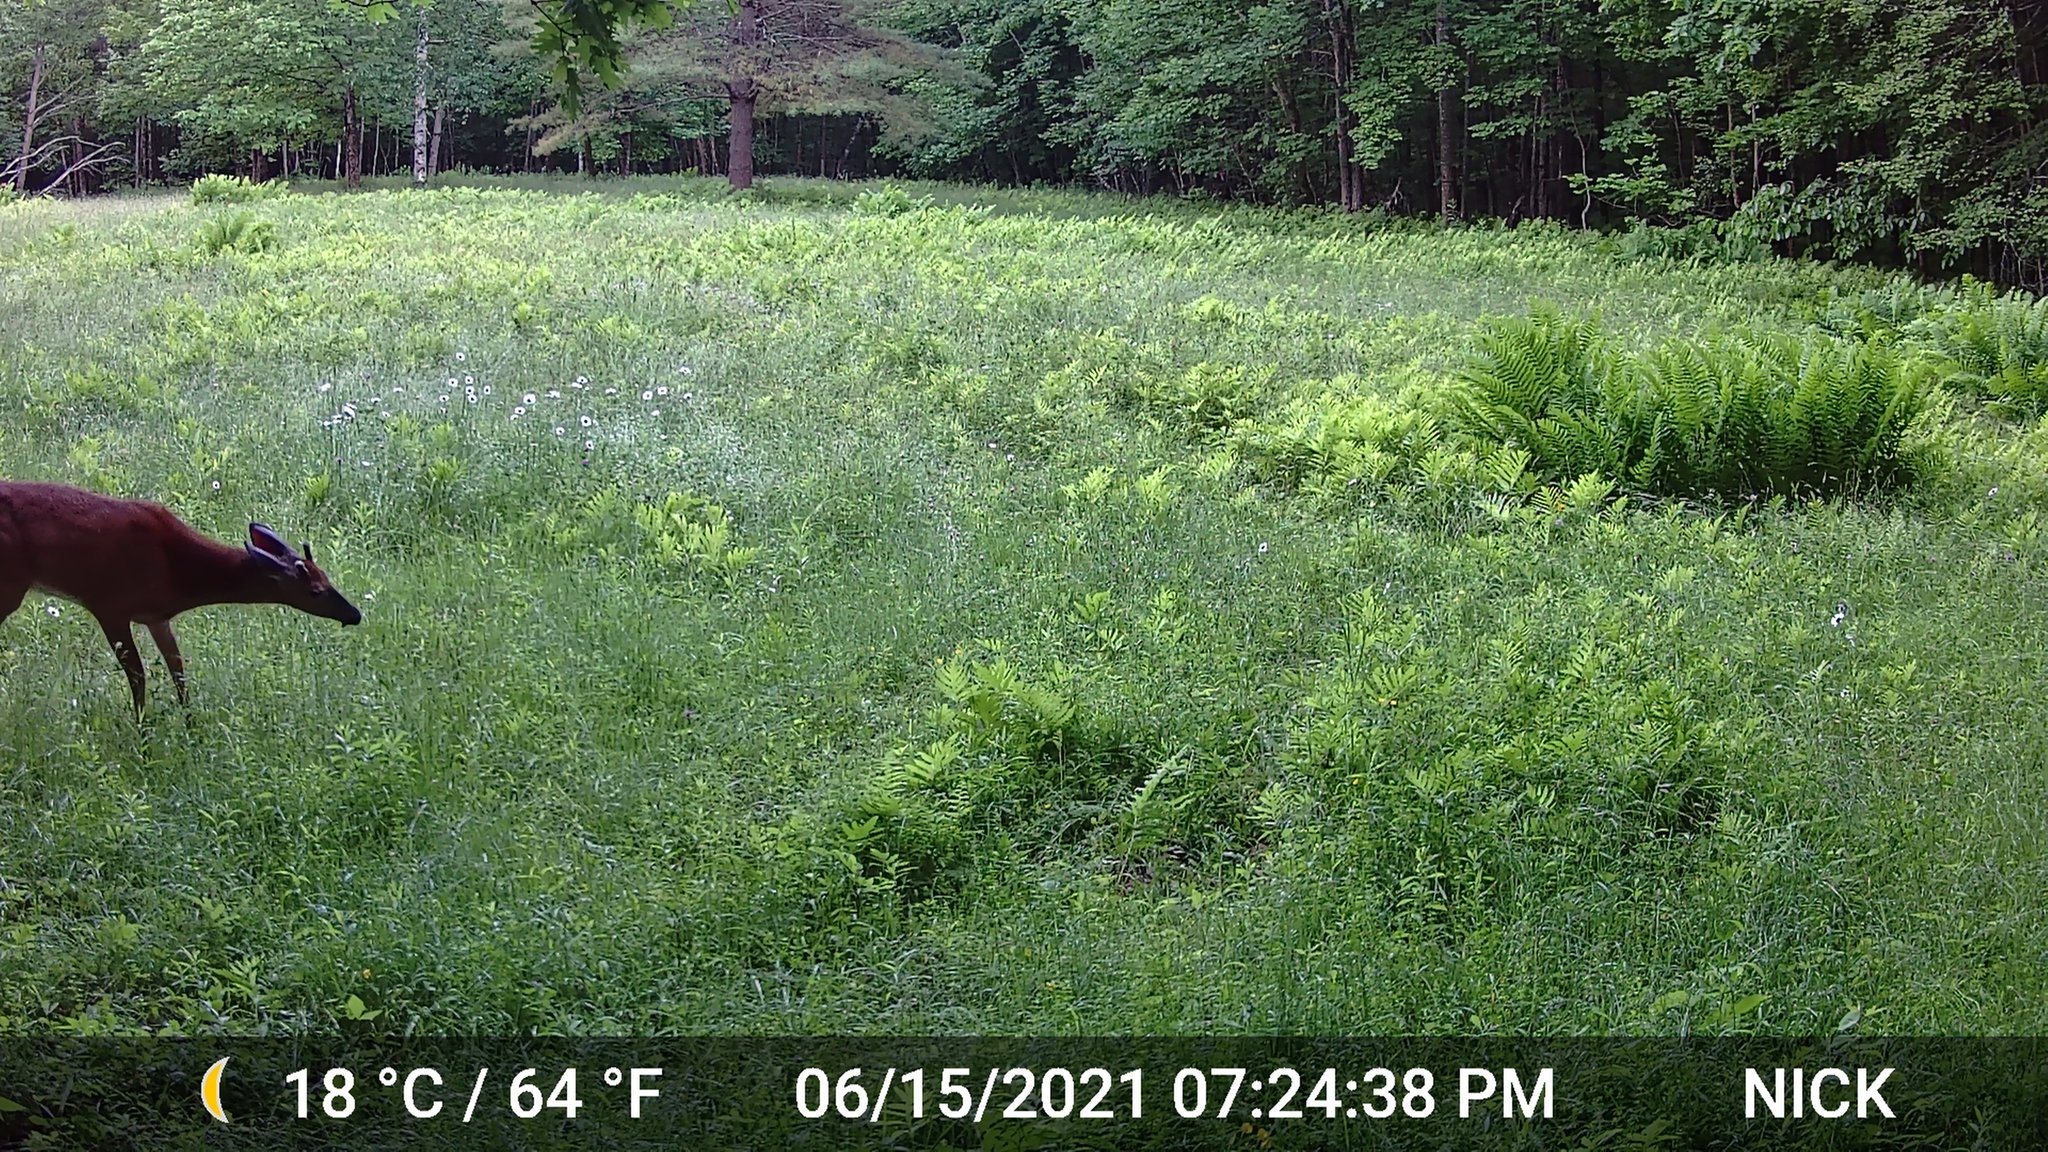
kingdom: Animalia
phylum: Chordata
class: Mammalia
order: Artiodactyla
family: Cervidae
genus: Odocoileus
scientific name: Odocoileus virginianus
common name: White-tailed deer
